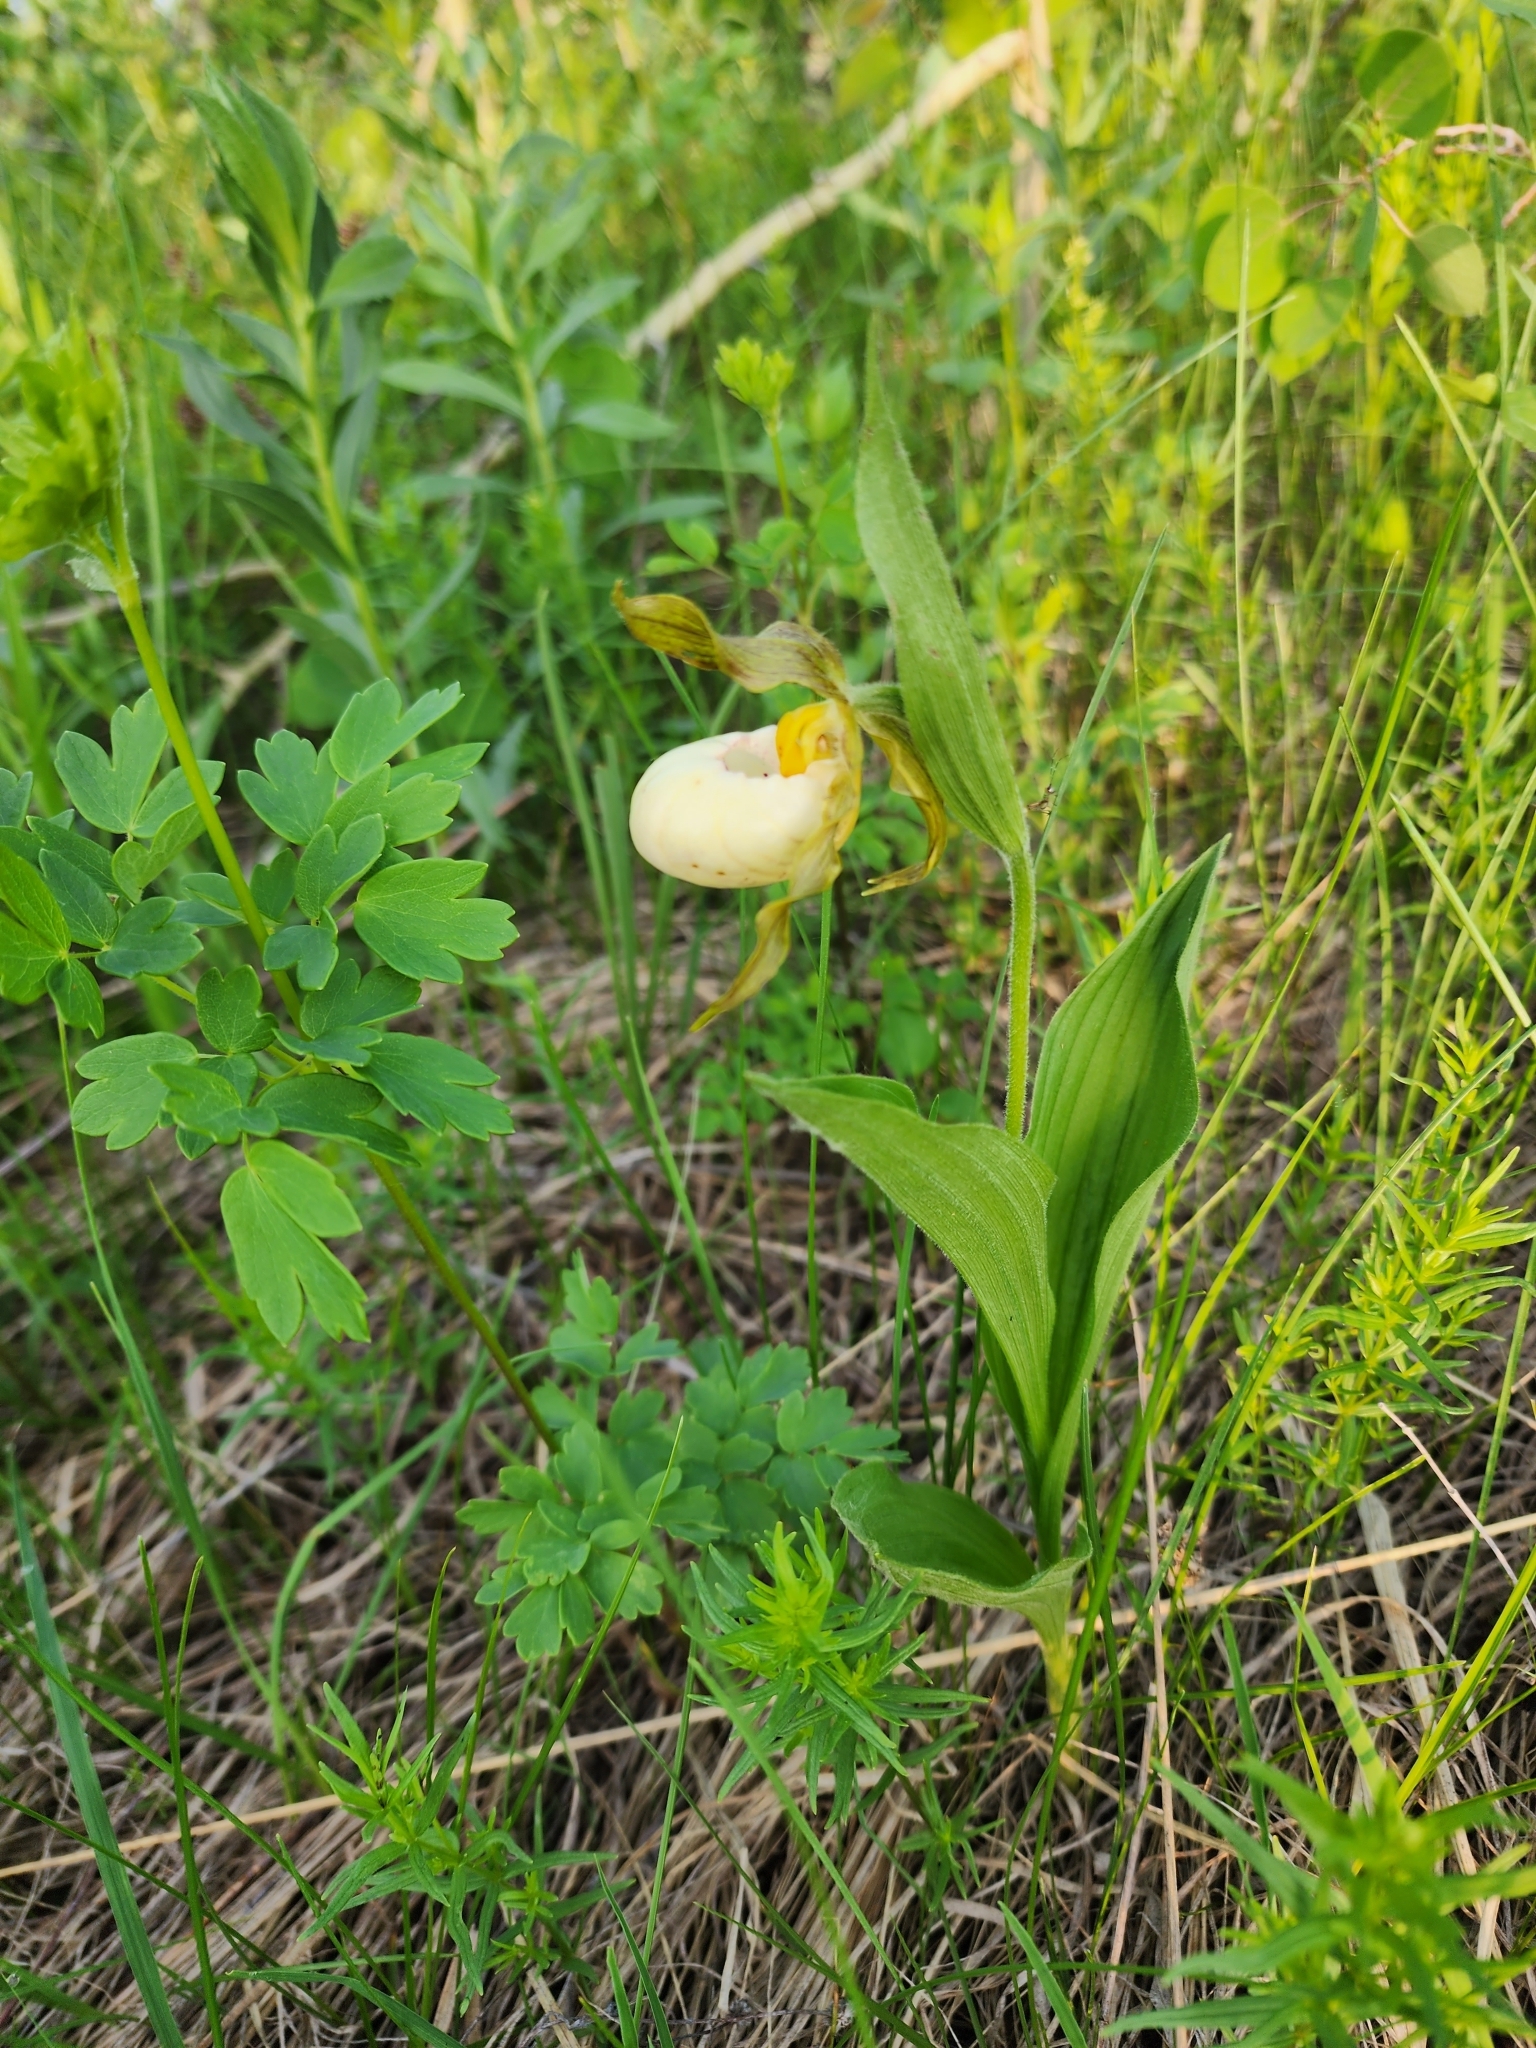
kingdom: Plantae
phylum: Tracheophyta
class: Liliopsida
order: Asparagales
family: Orchidaceae
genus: Cypripedium
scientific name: Cypripedium andrewsii
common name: Andrew's lady's-slipper
